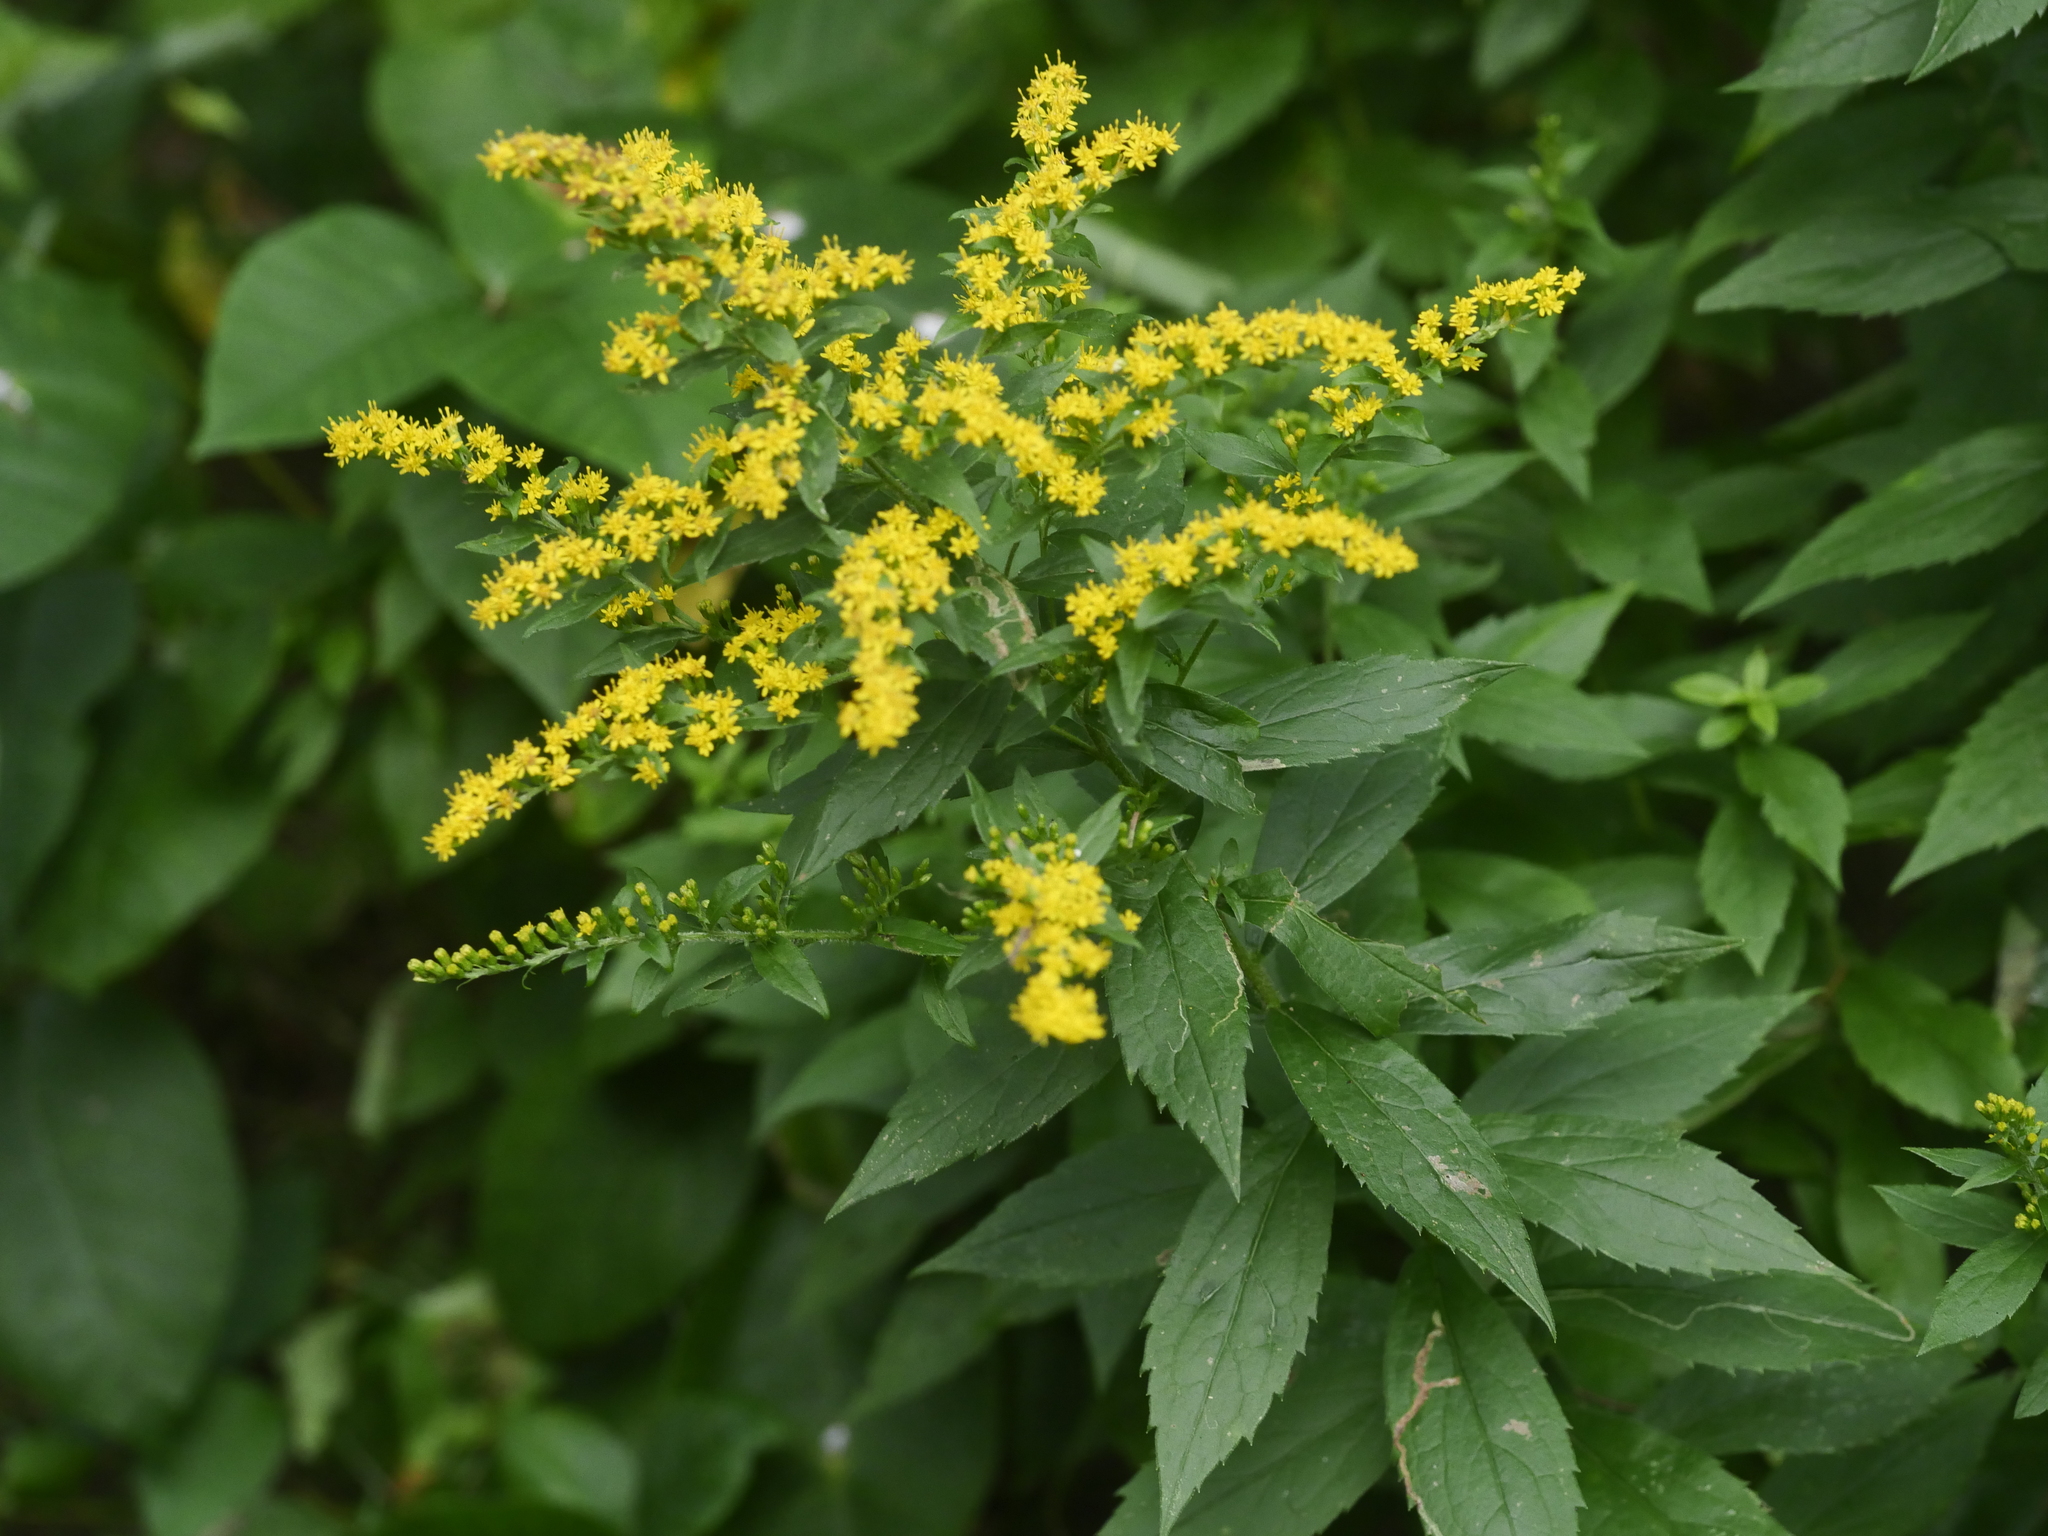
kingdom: Plantae
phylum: Tracheophyta
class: Magnoliopsida
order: Asterales
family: Asteraceae
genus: Solidago
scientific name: Solidago rugosa
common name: Rough-stemmed goldenrod
